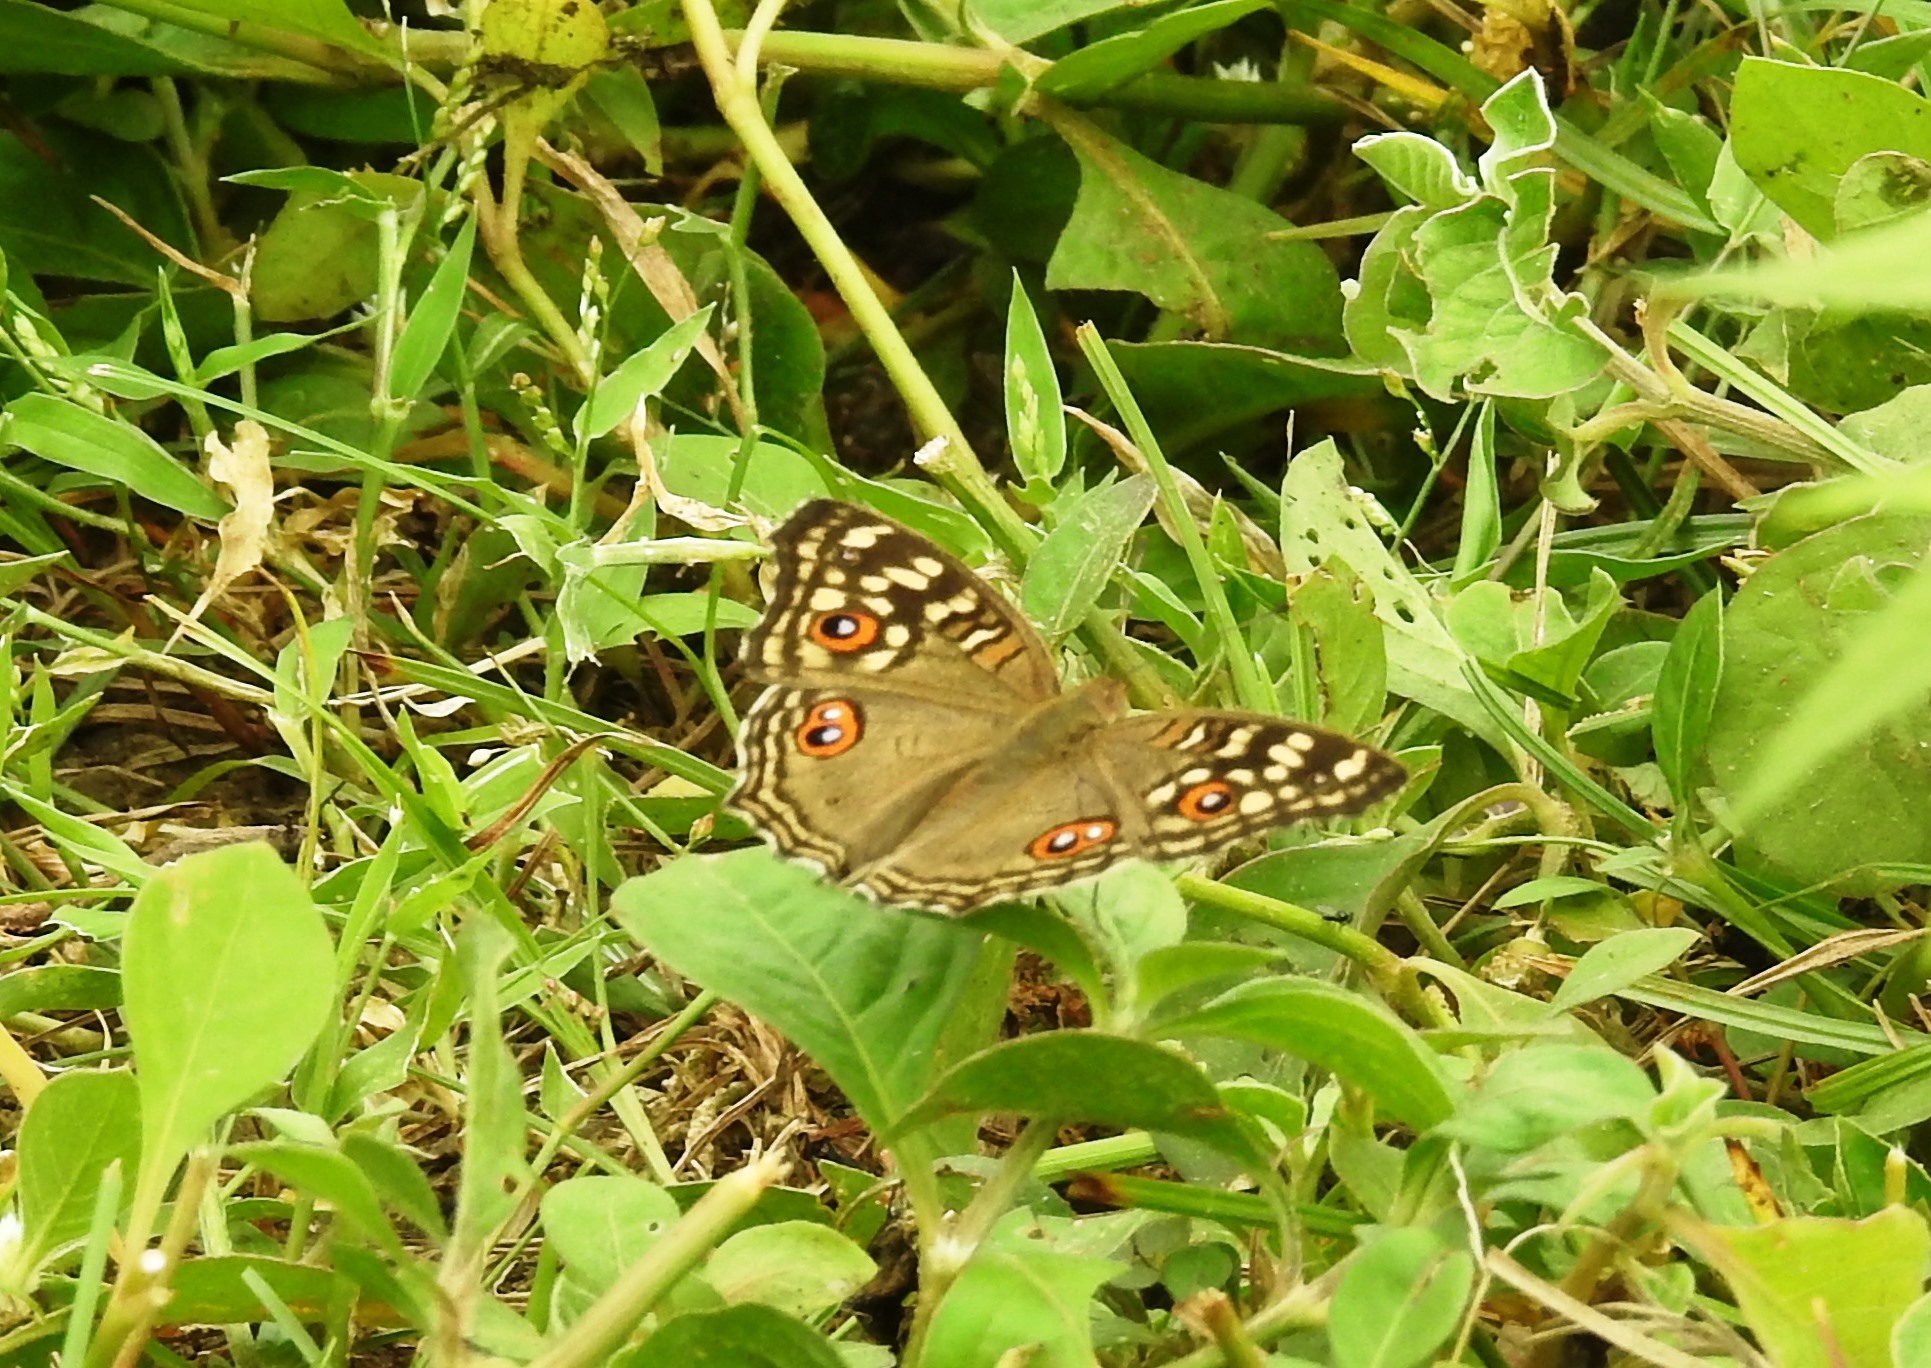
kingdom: Animalia
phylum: Arthropoda
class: Insecta
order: Lepidoptera
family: Nymphalidae
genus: Junonia
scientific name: Junonia lemonias
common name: Lemon pansy
